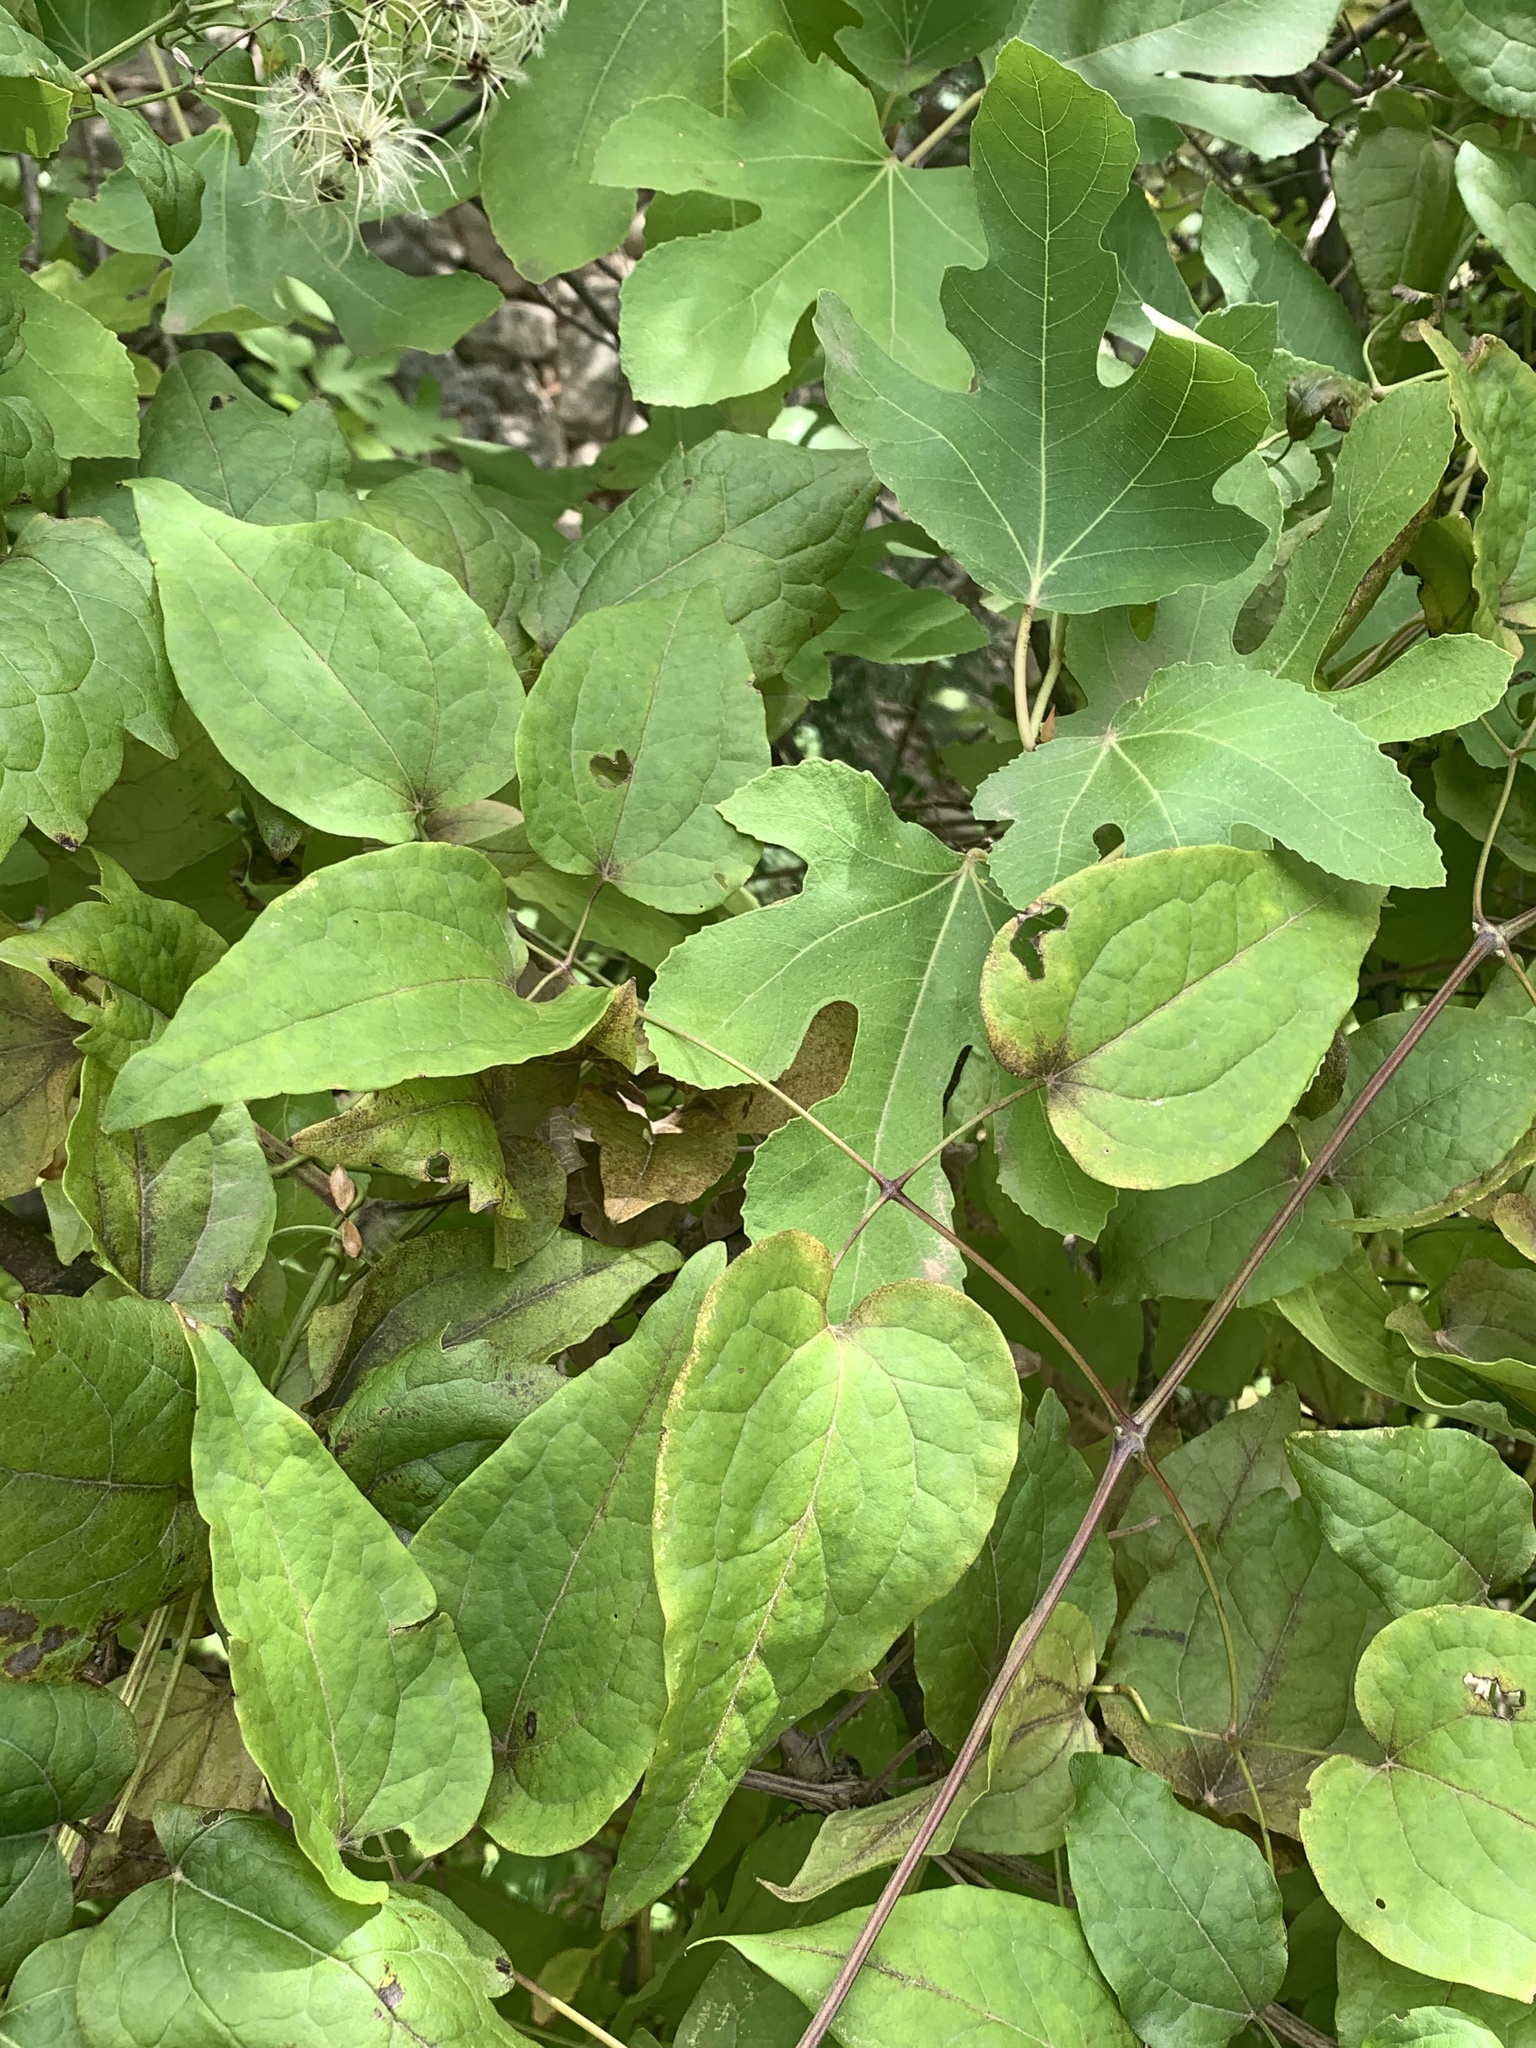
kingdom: Plantae
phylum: Tracheophyta
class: Magnoliopsida
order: Ranunculales
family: Ranunculaceae
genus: Clematis
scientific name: Clematis vitalba
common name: Evergreen clematis
